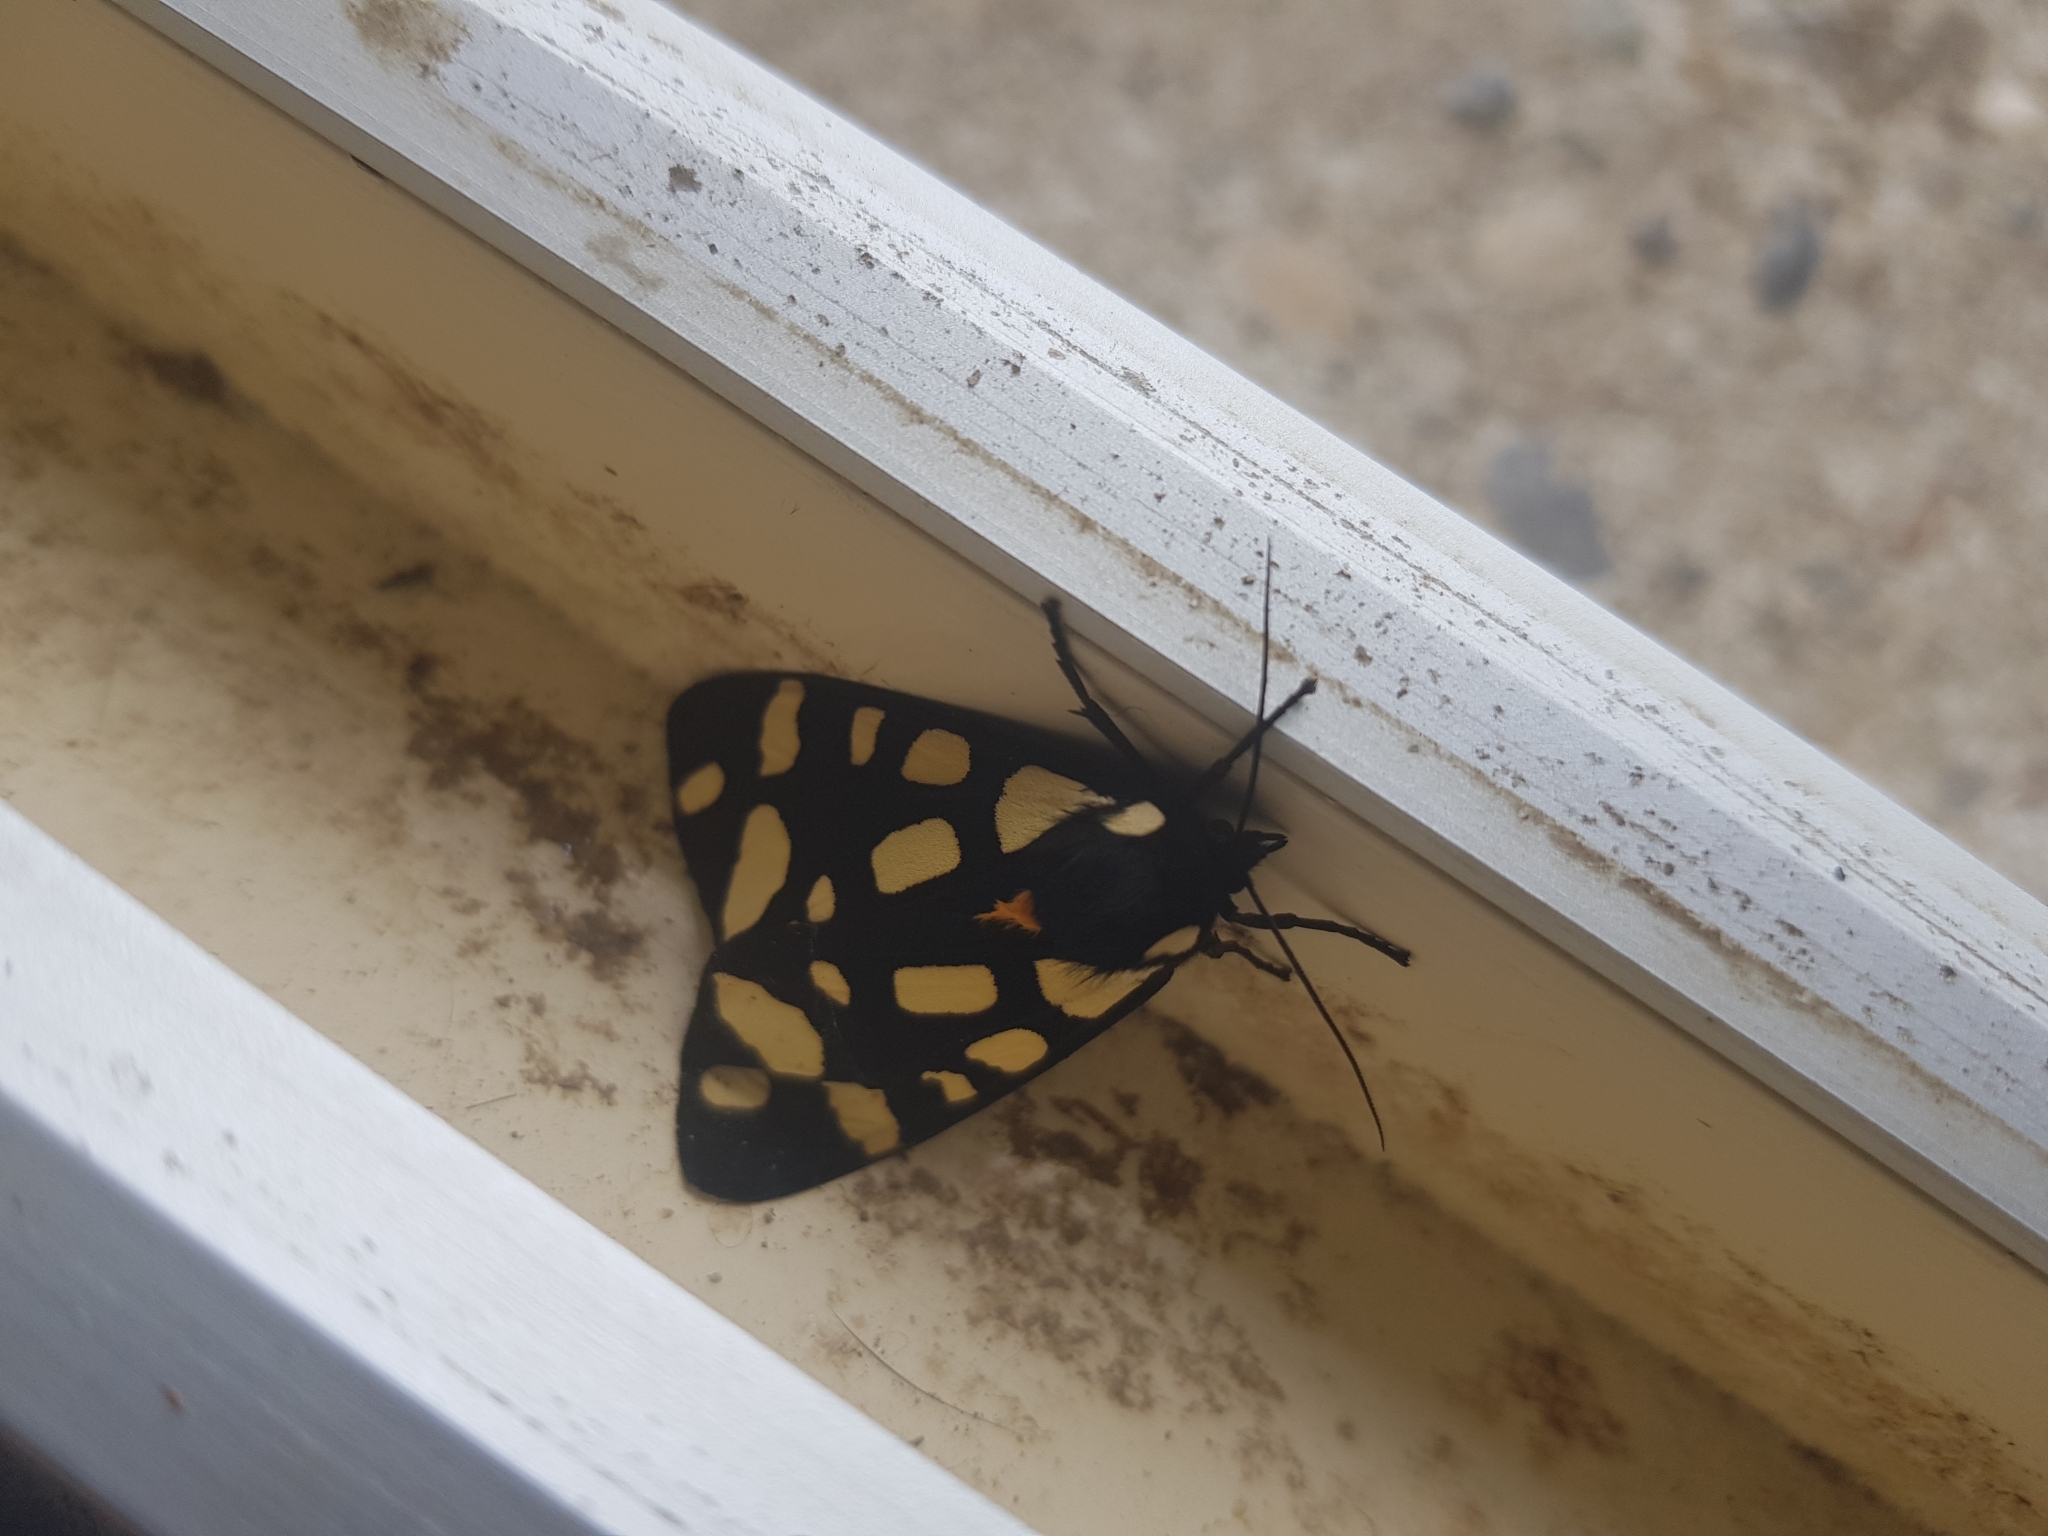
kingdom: Animalia
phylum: Arthropoda
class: Insecta
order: Lepidoptera
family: Erebidae
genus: Epicallia
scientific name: Epicallia villica
